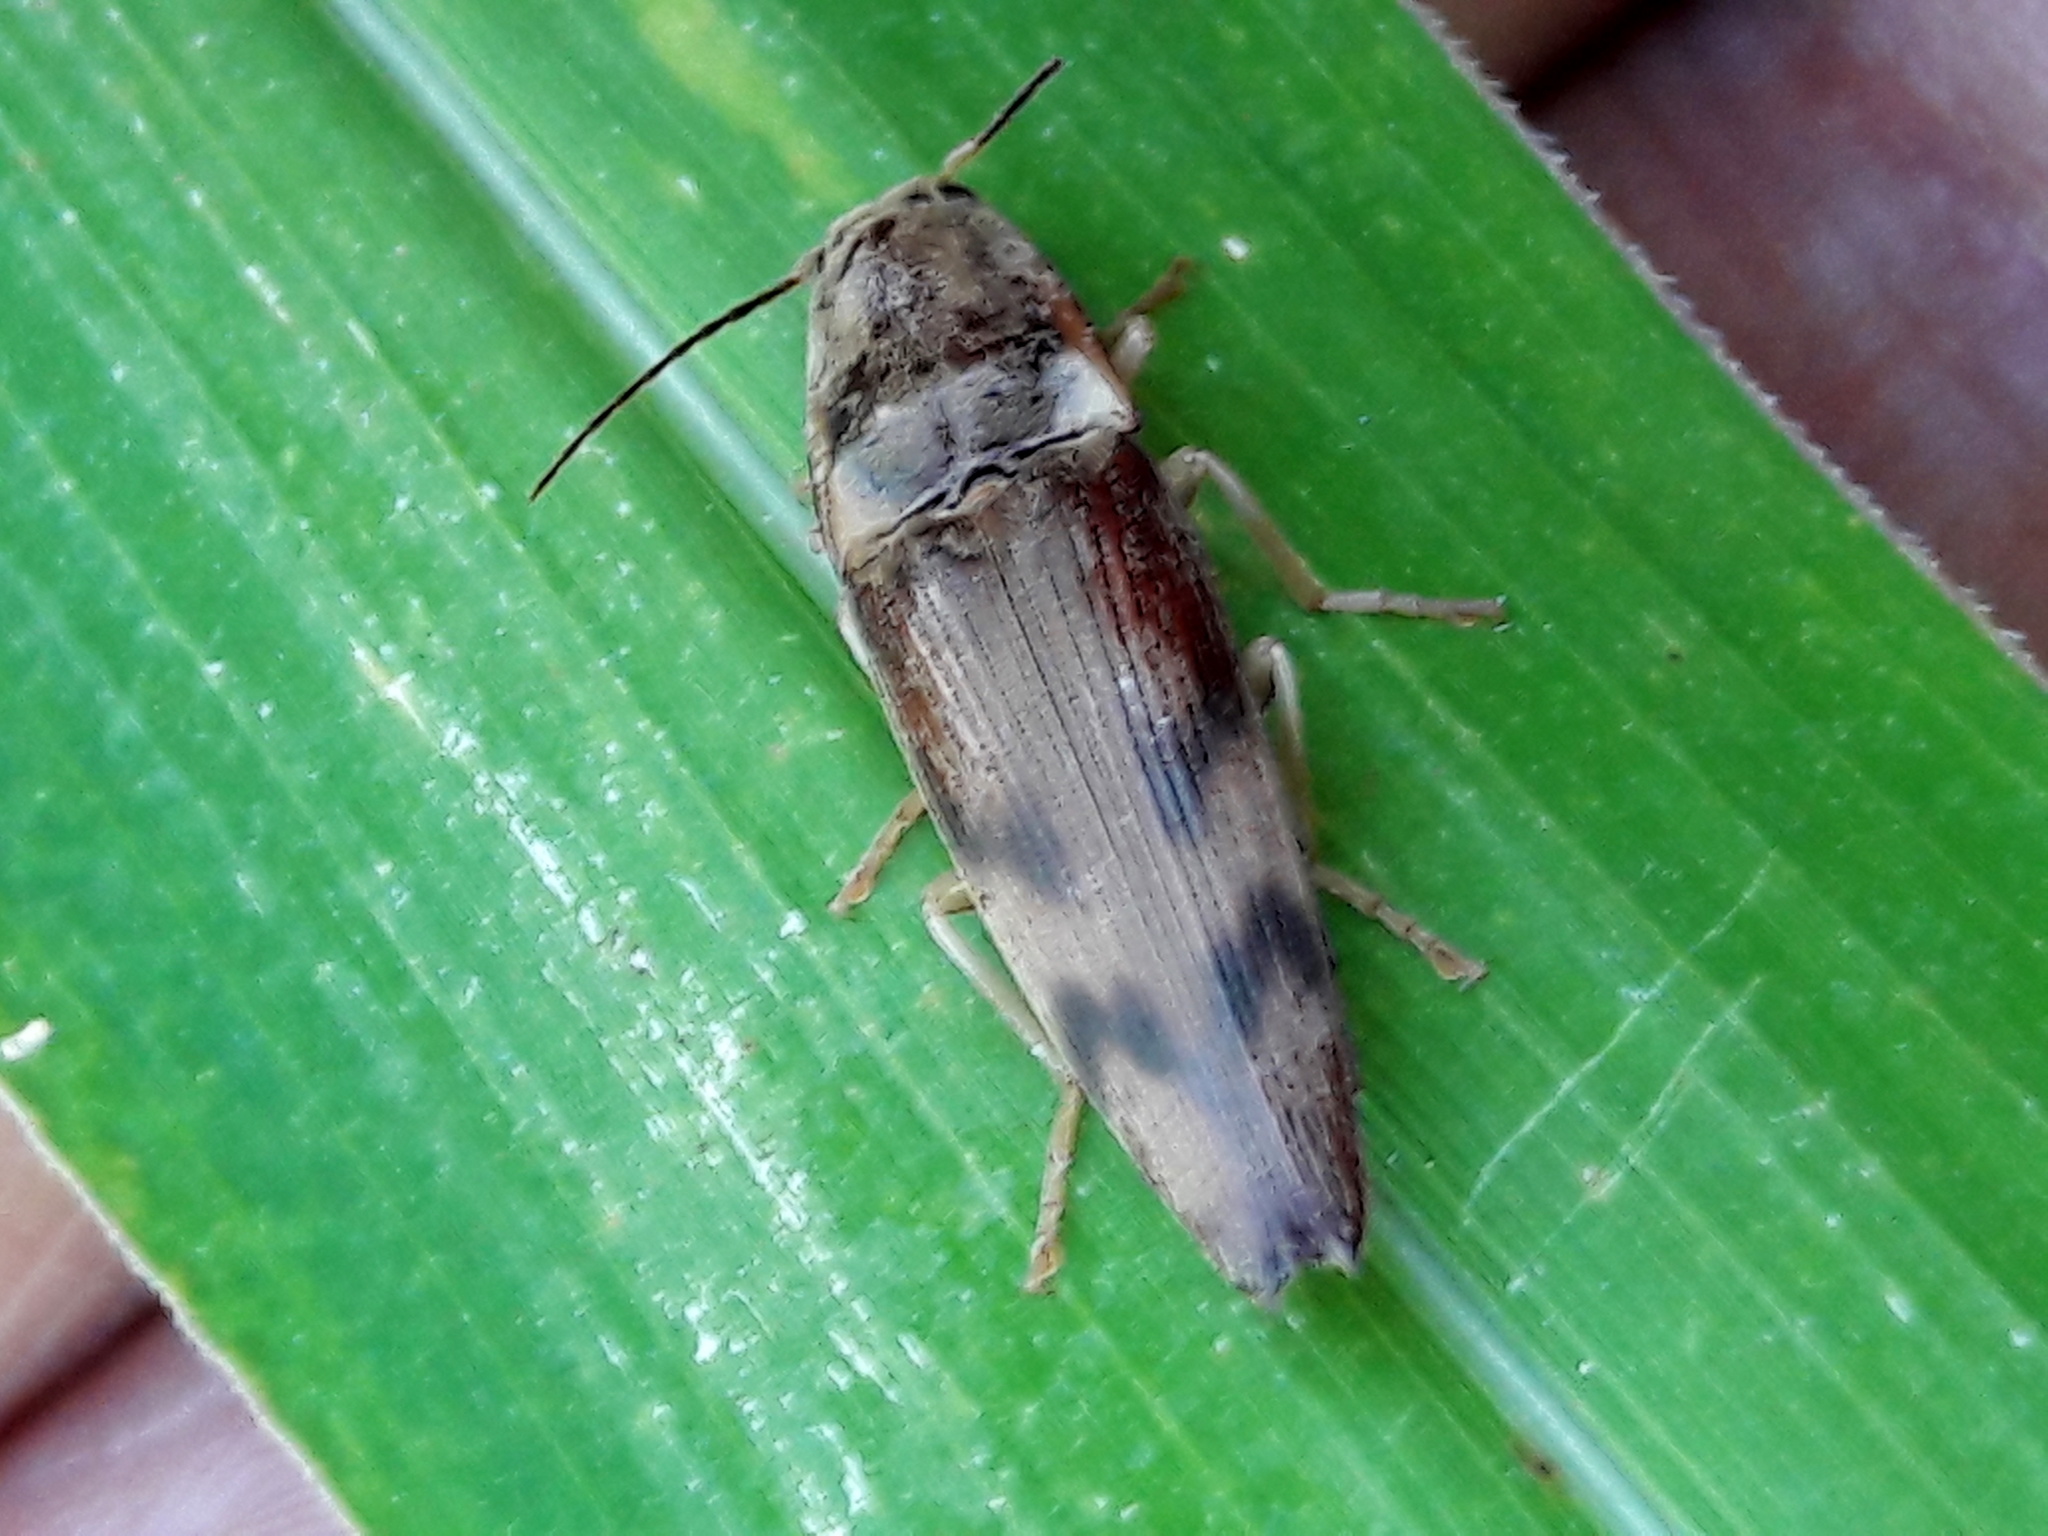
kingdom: Animalia
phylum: Arthropoda
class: Insecta
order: Coleoptera
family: Elateridae
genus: Monocrepidius
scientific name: Monocrepidius
